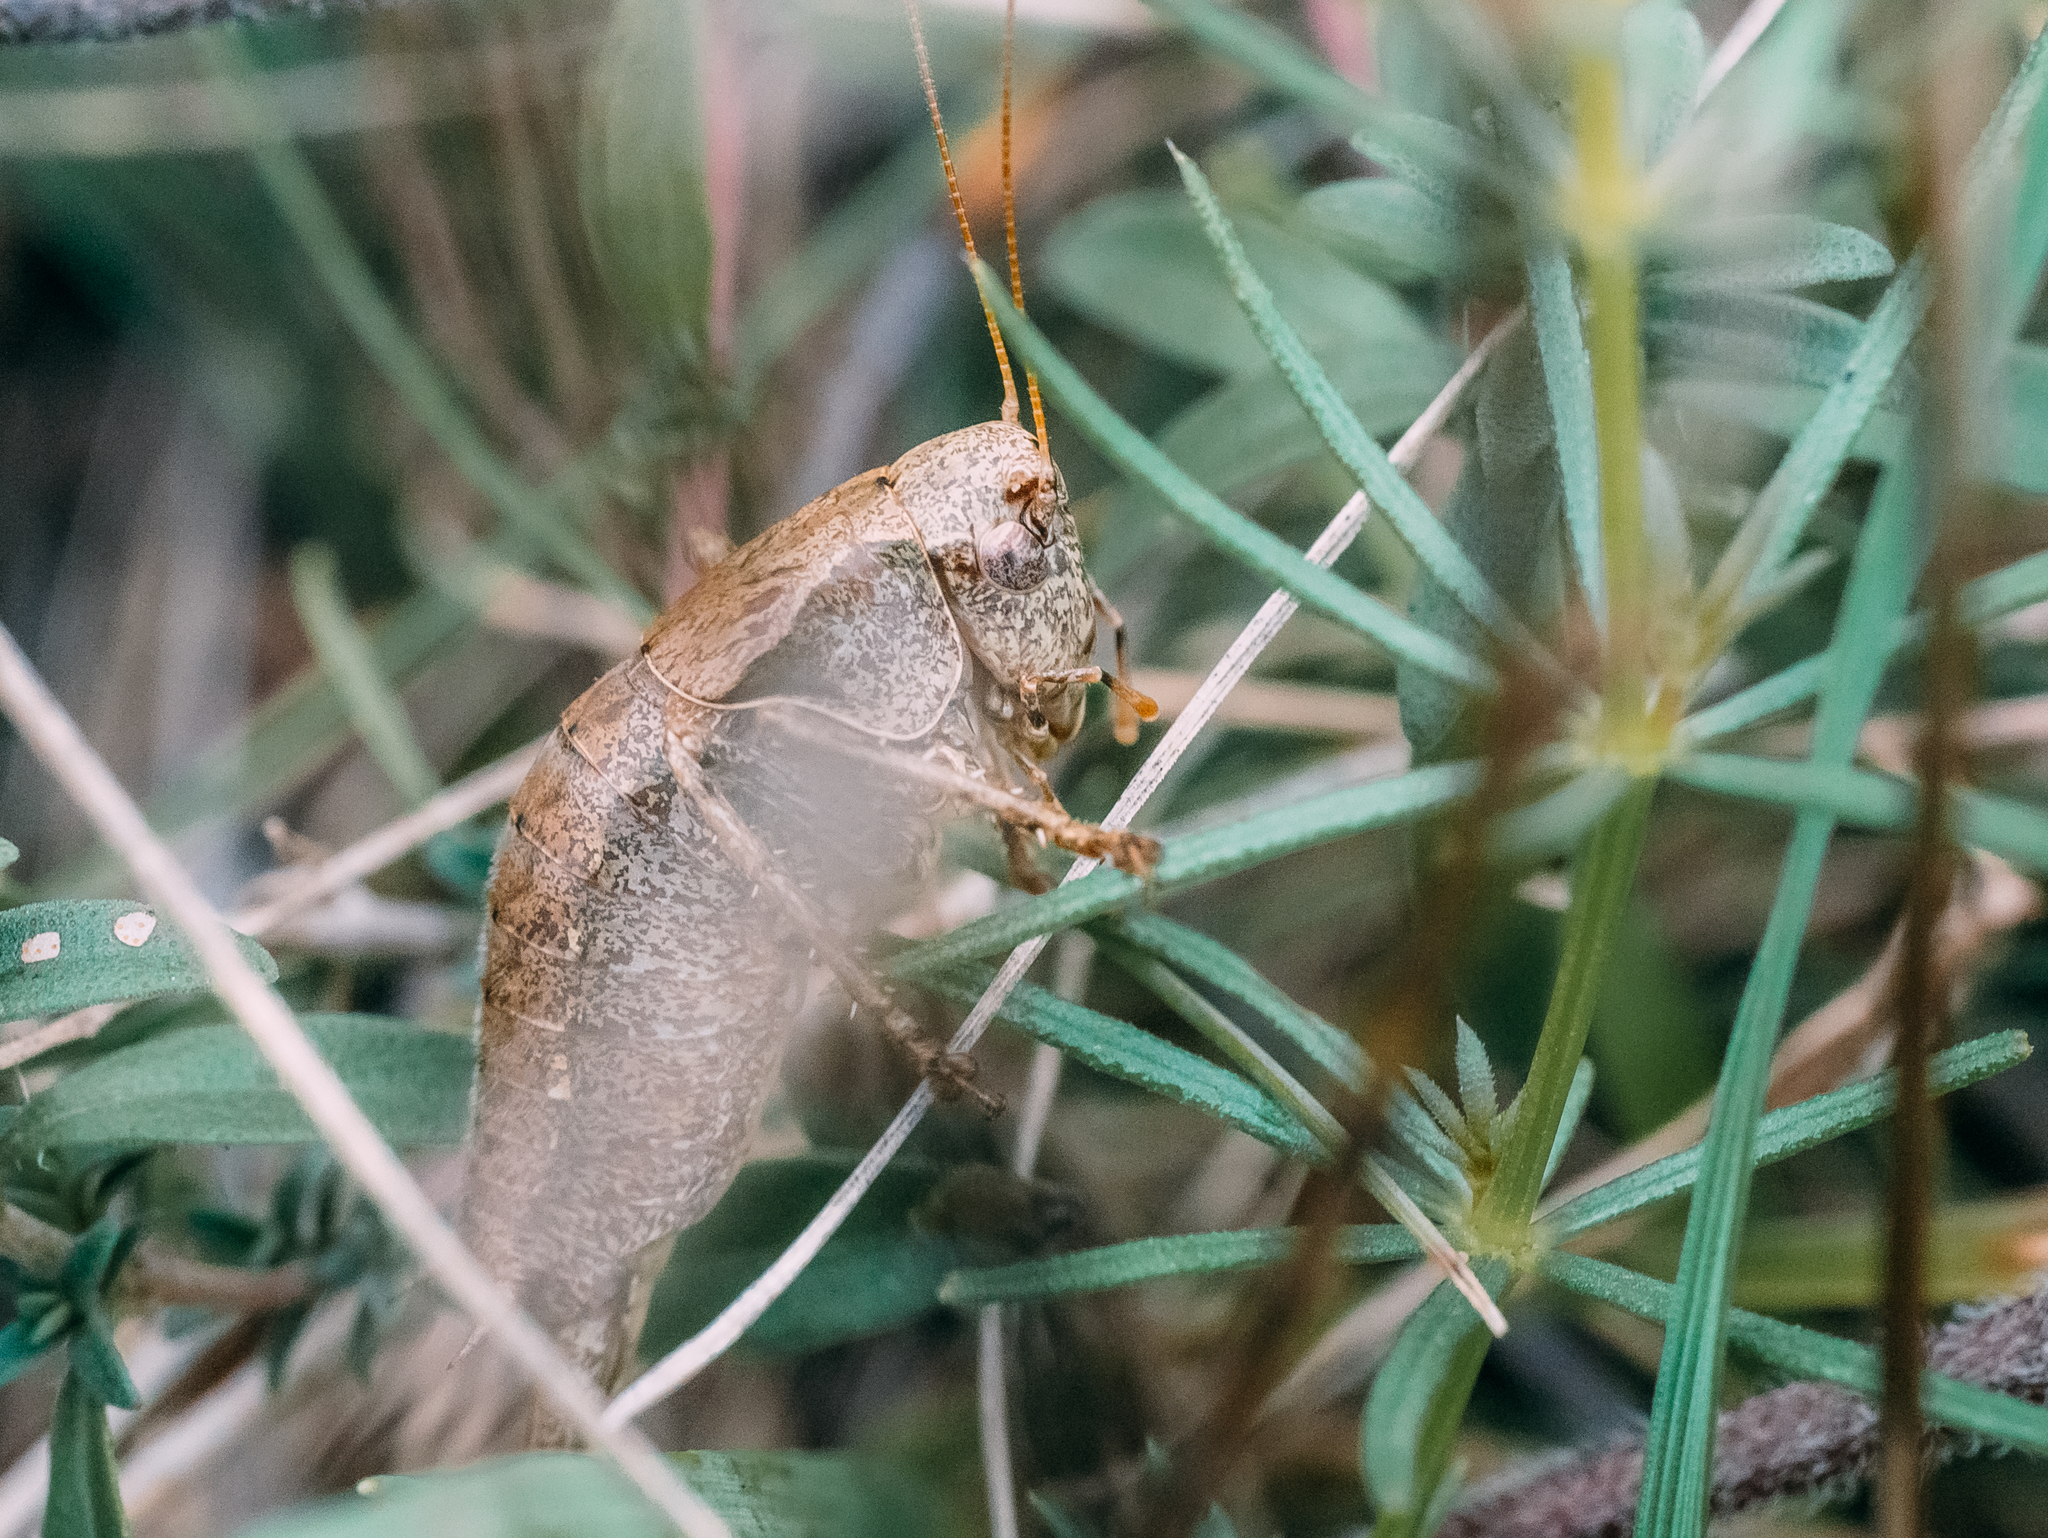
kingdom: Animalia
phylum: Arthropoda
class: Insecta
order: Orthoptera
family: Tettigoniidae
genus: Pholidoptera
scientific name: Pholidoptera griseoaptera
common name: Dark bush-cricket
